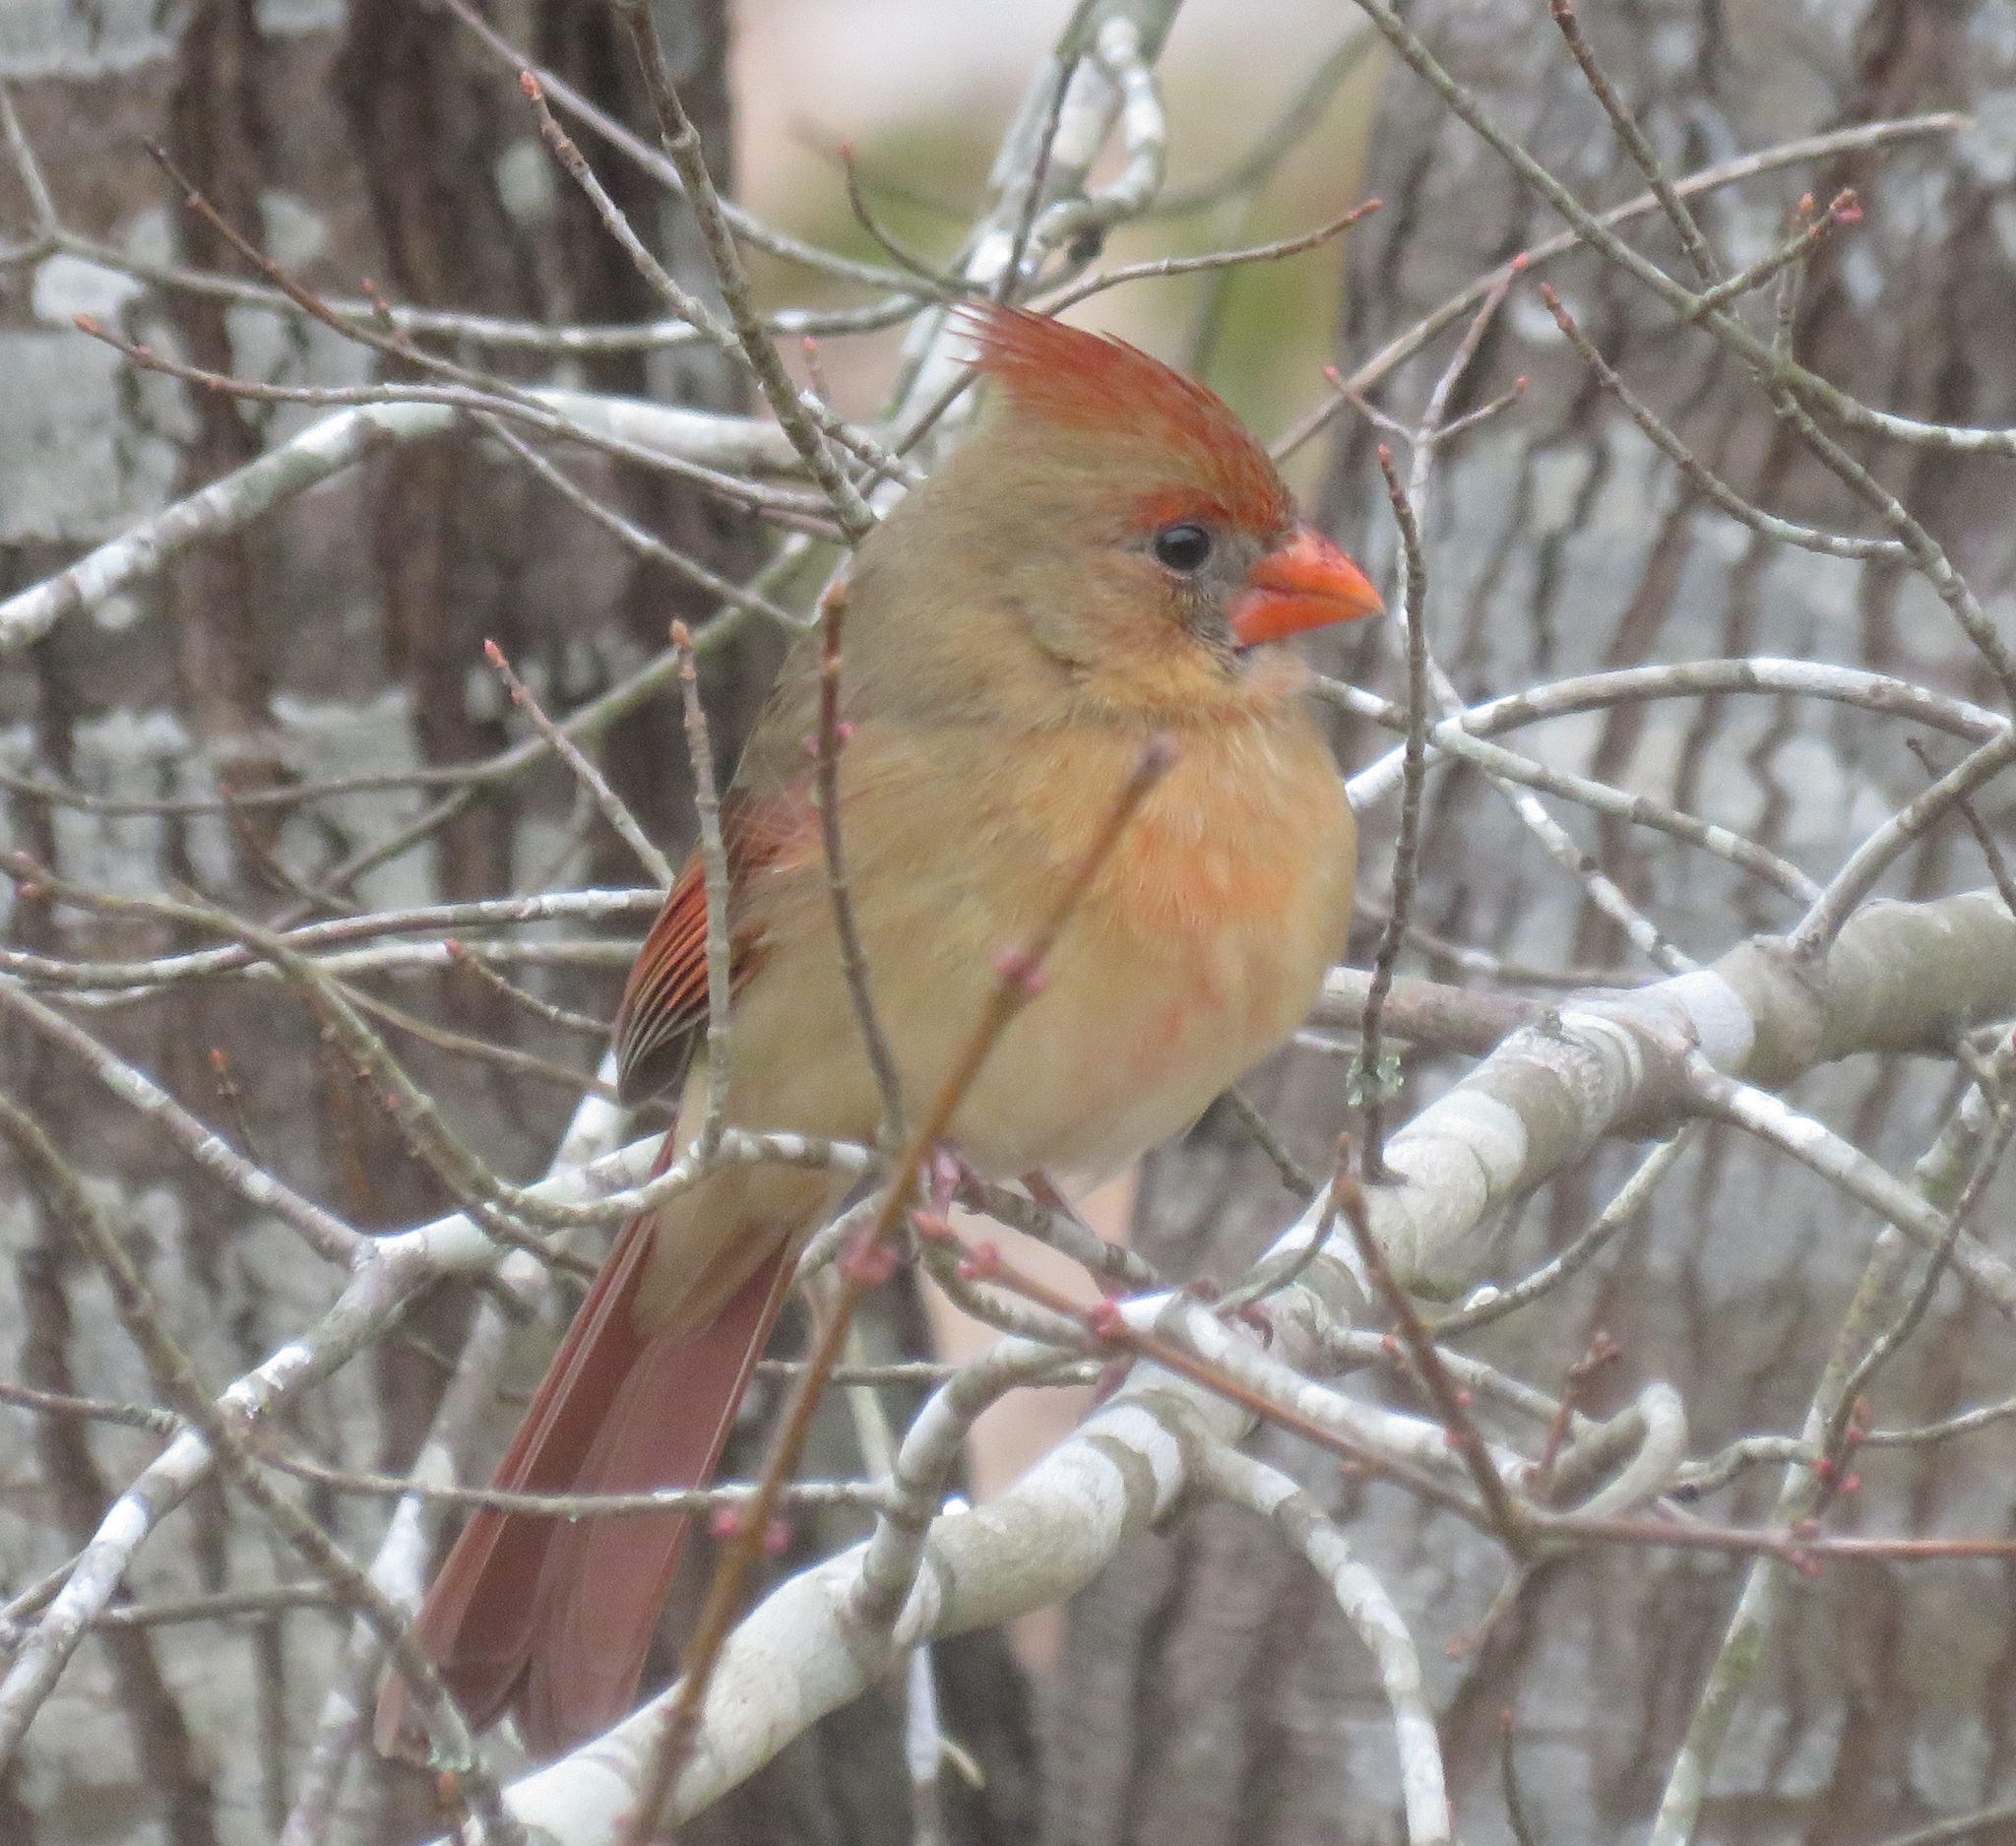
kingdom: Animalia
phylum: Chordata
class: Aves
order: Passeriformes
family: Cardinalidae
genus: Cardinalis
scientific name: Cardinalis cardinalis
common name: Northern cardinal
